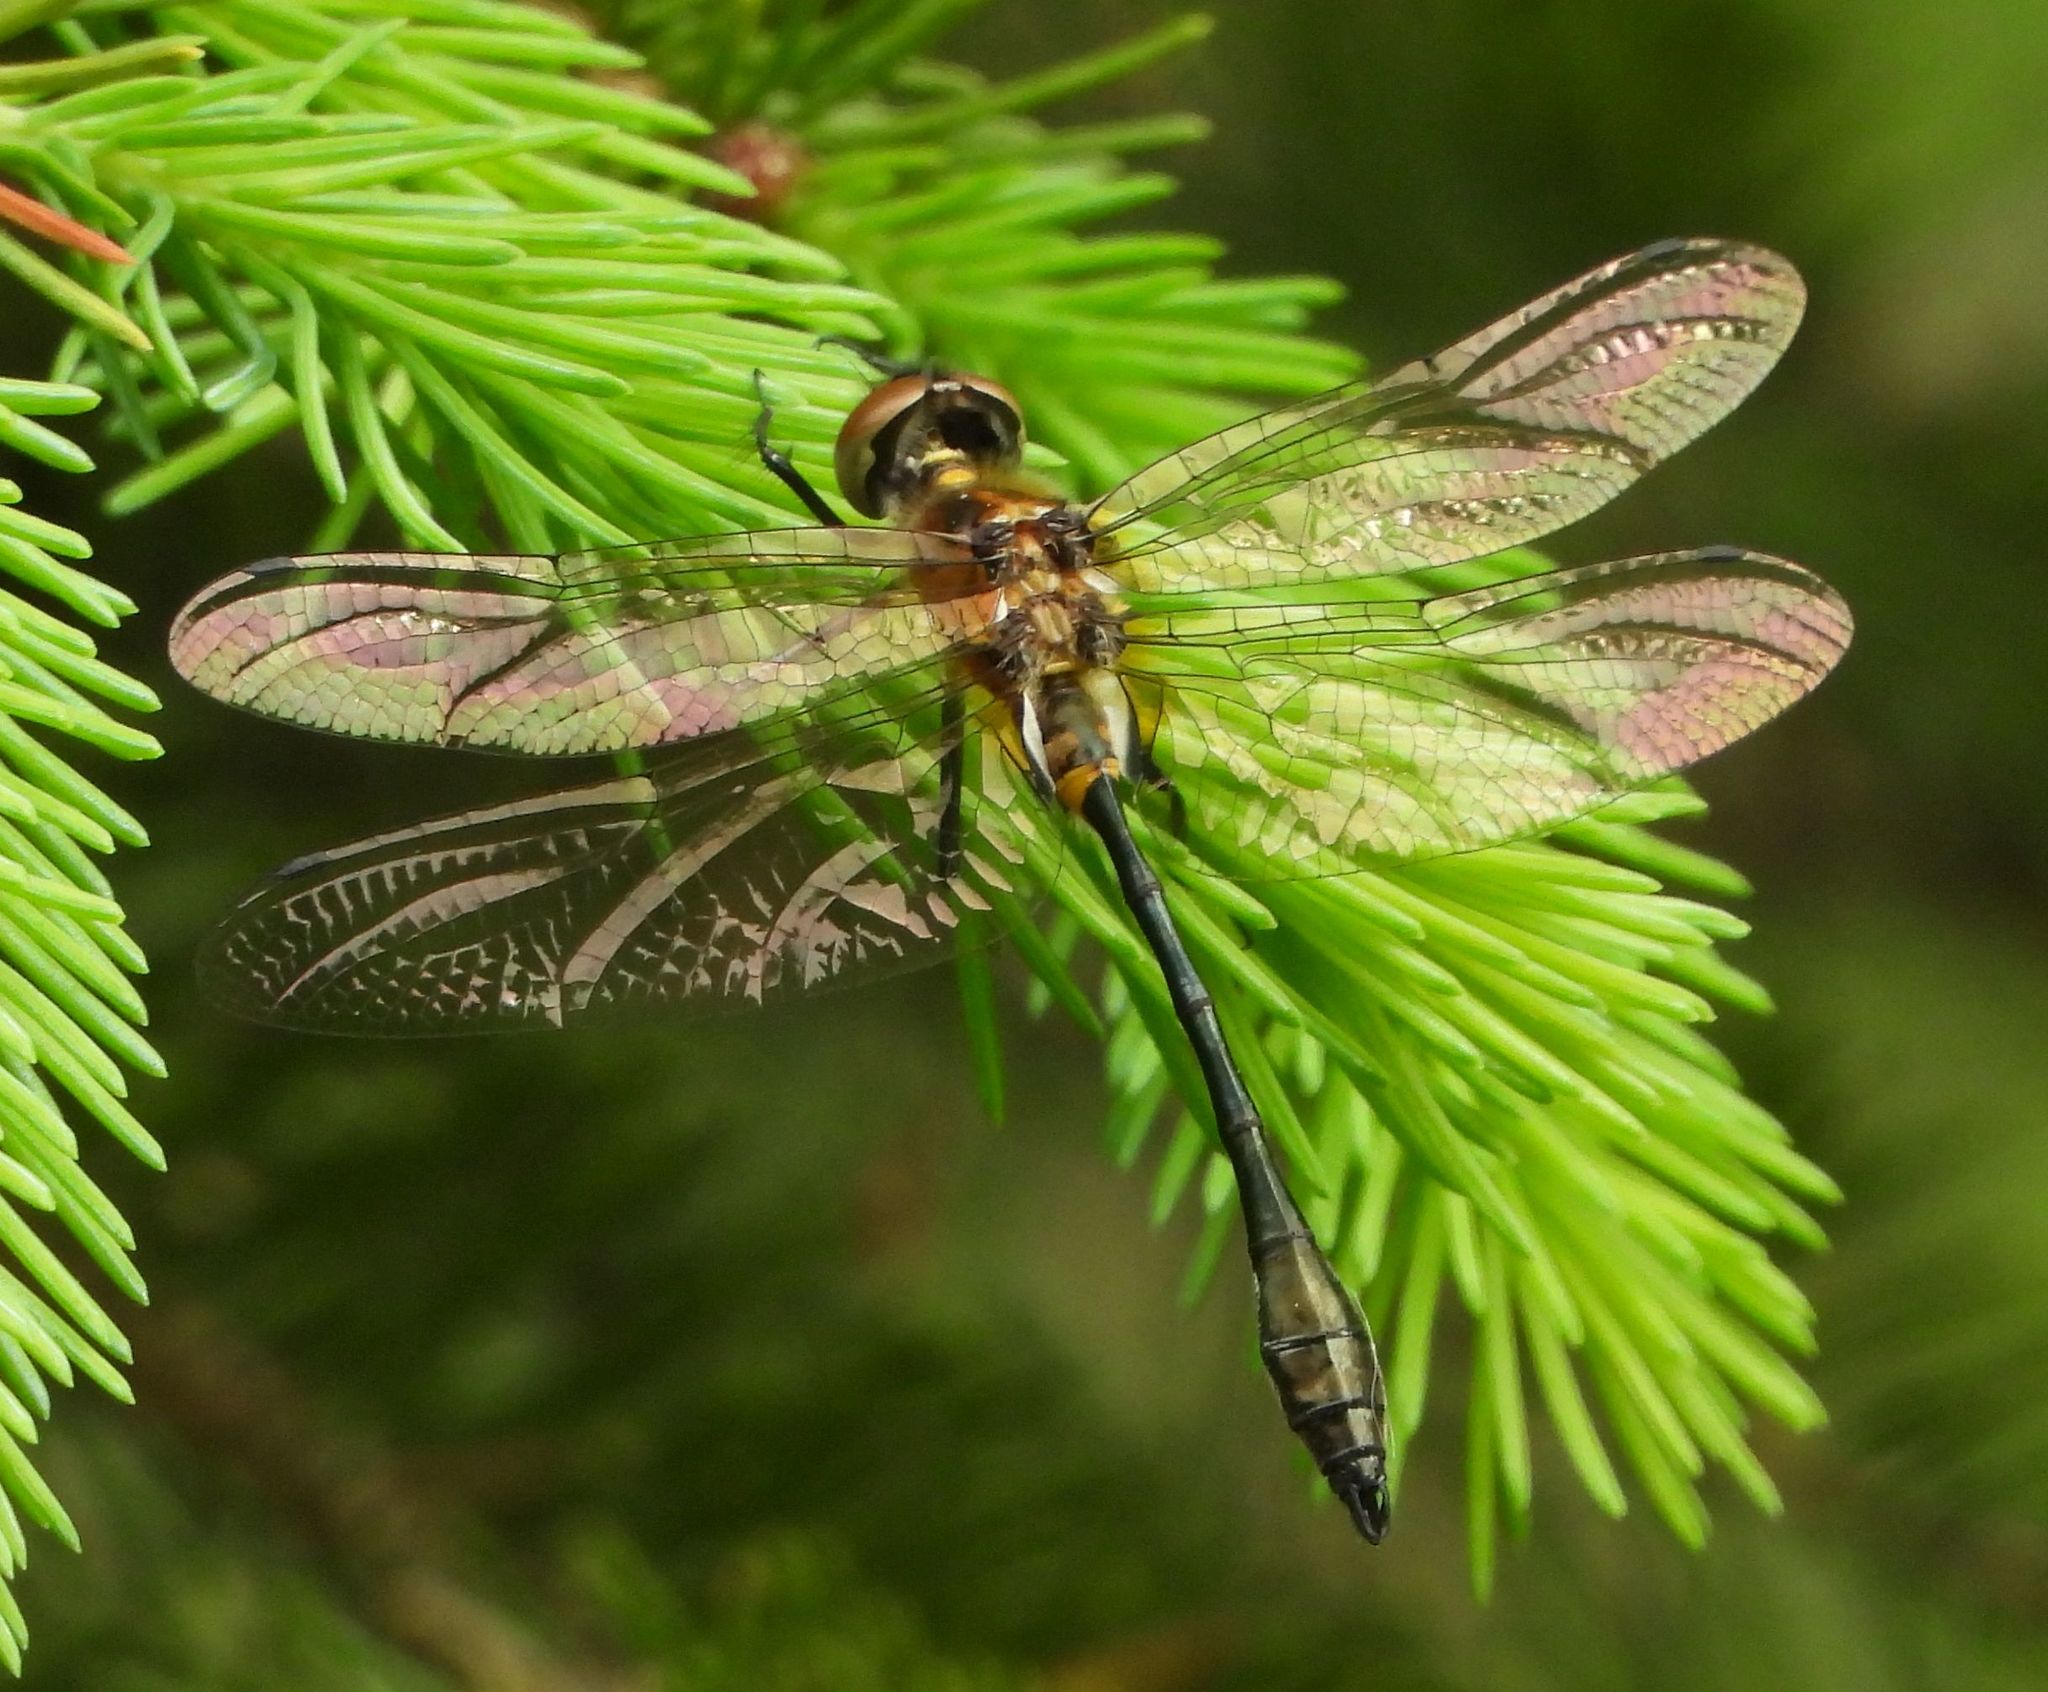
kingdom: Animalia
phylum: Arthropoda
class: Insecta
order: Odonata
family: Corduliidae
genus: Dorocordulia
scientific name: Dorocordulia libera
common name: Racket-tailed emerald
